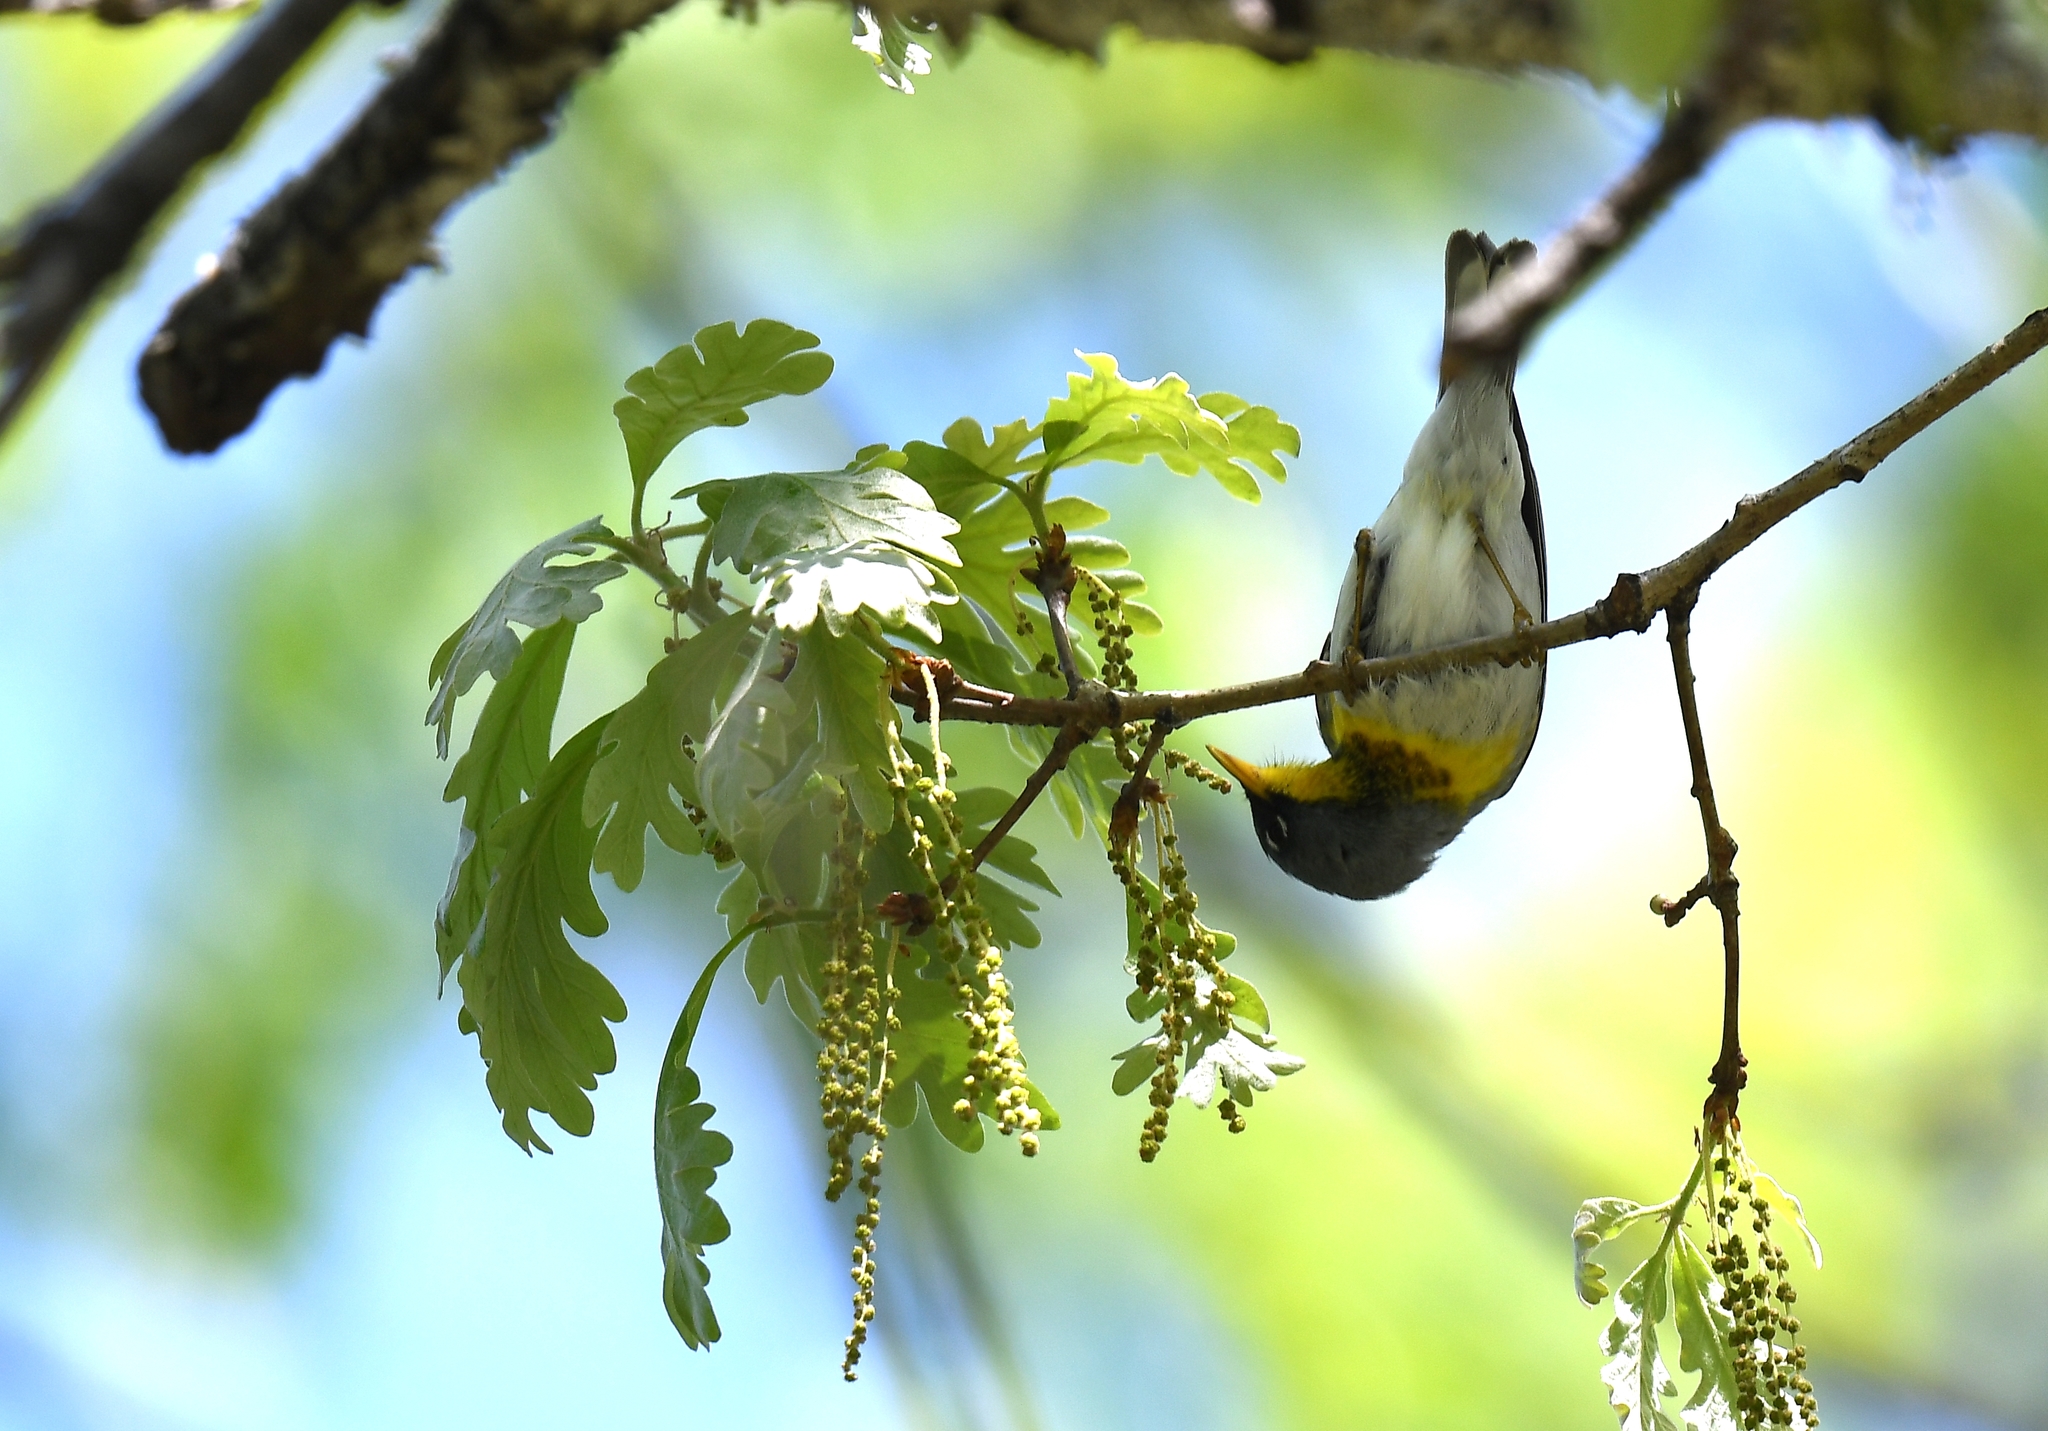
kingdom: Animalia
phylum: Chordata
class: Aves
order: Passeriformes
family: Parulidae
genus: Setophaga
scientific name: Setophaga americana
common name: Northern parula
